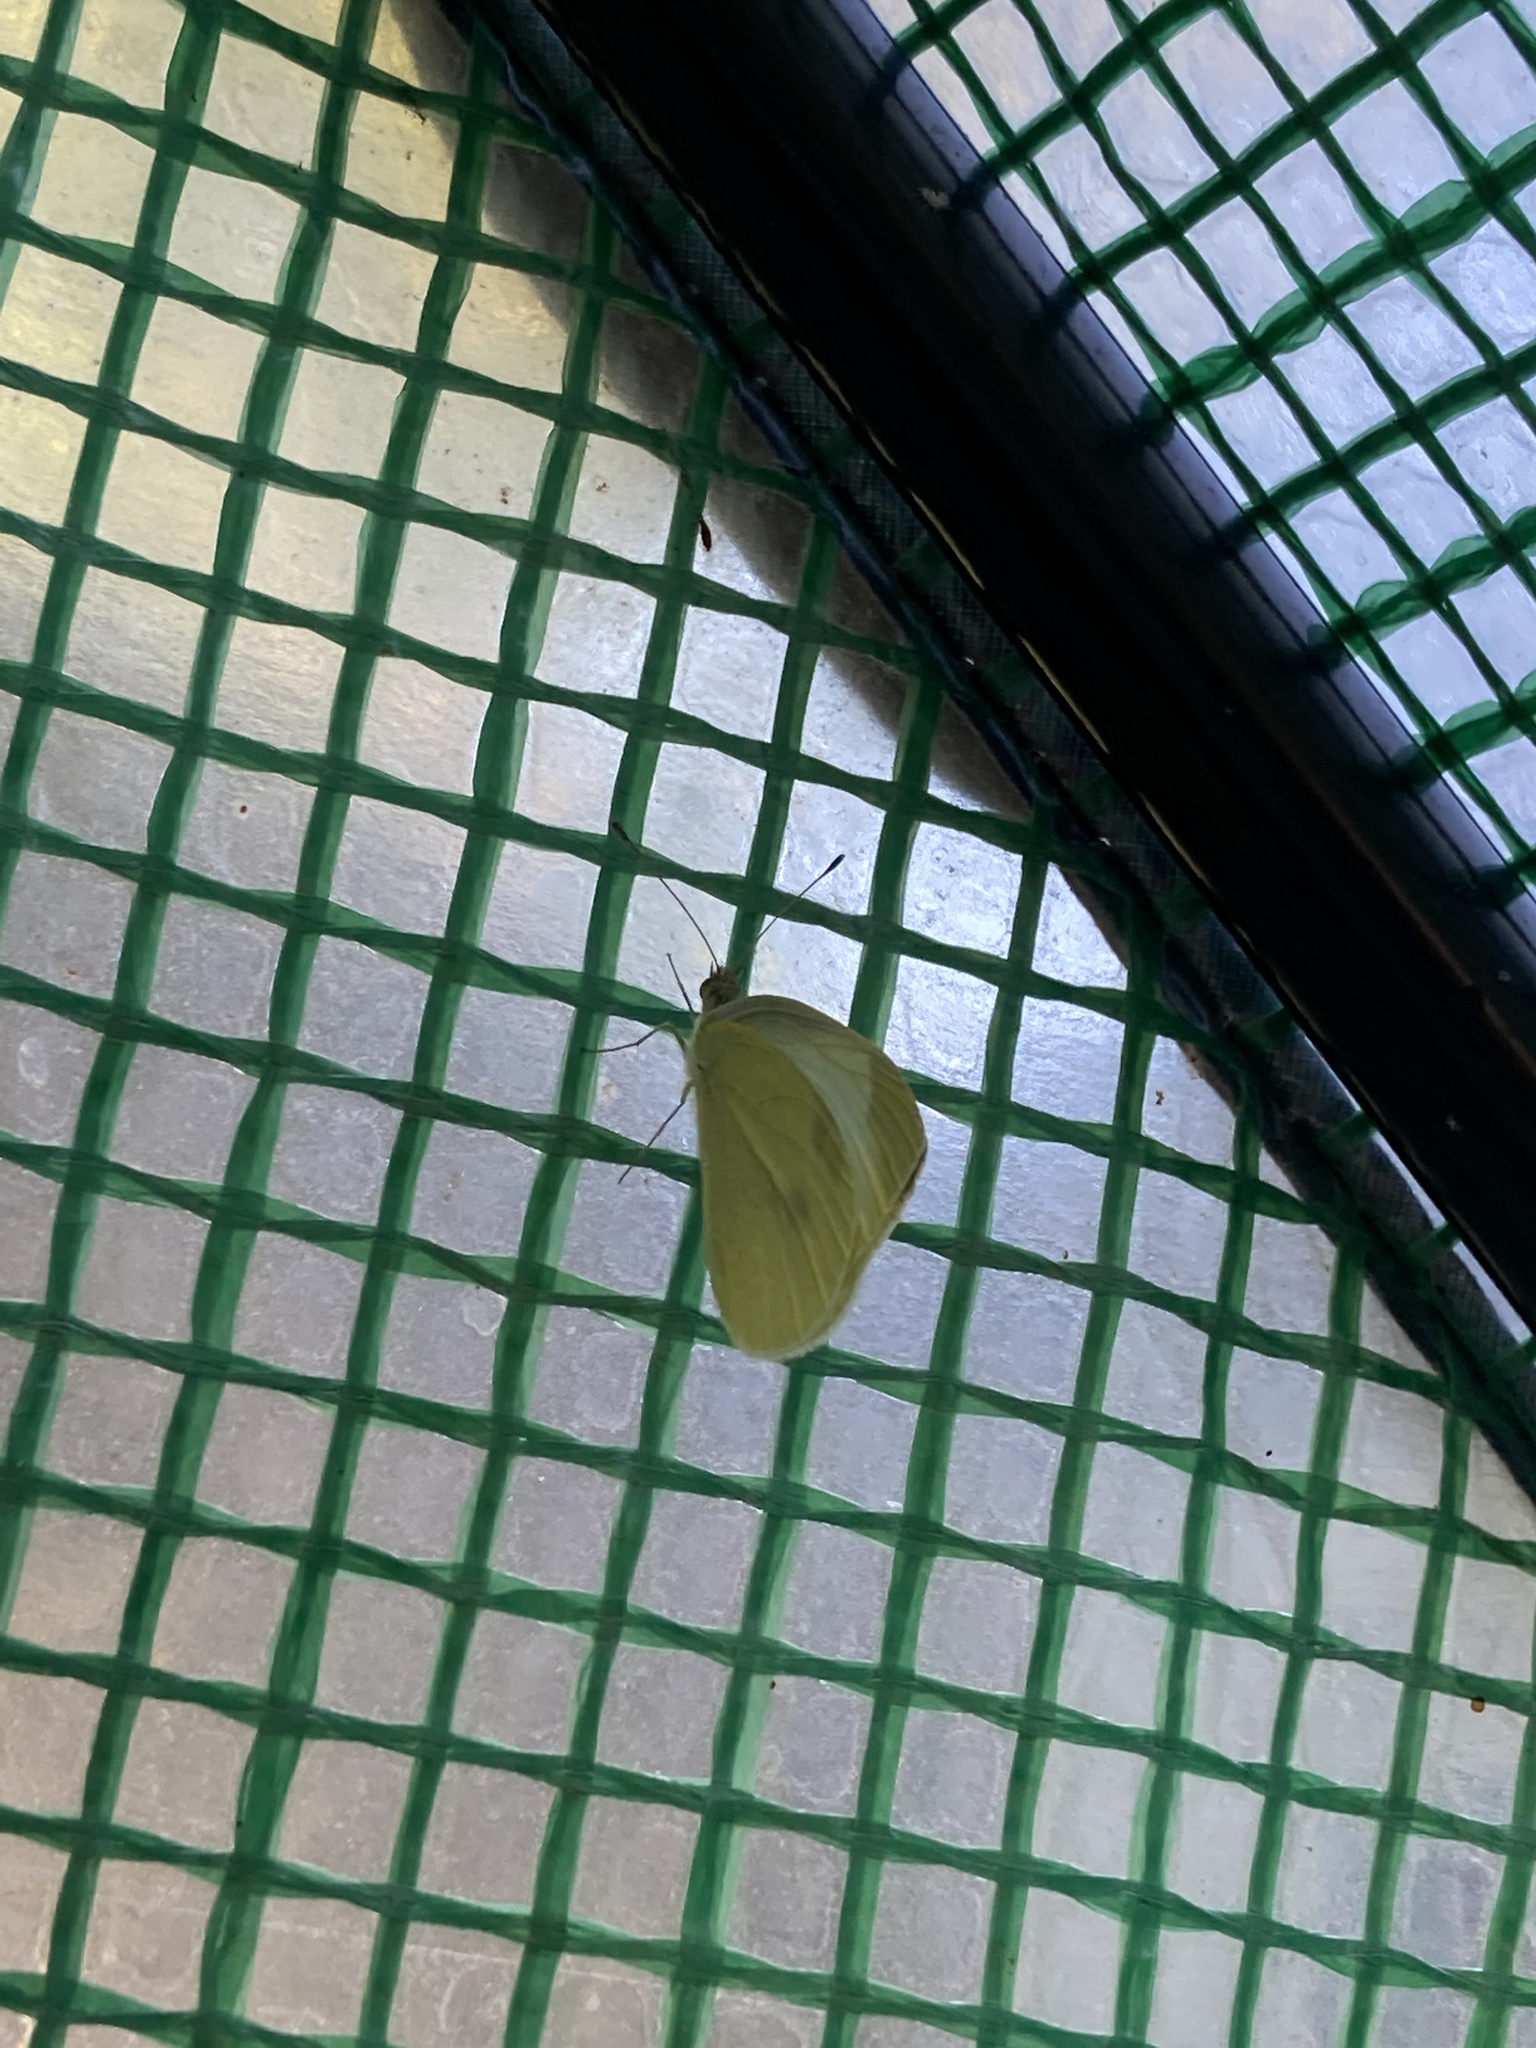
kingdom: Animalia
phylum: Arthropoda
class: Insecta
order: Lepidoptera
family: Pieridae
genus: Pieris
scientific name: Pieris rapae
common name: Small white
